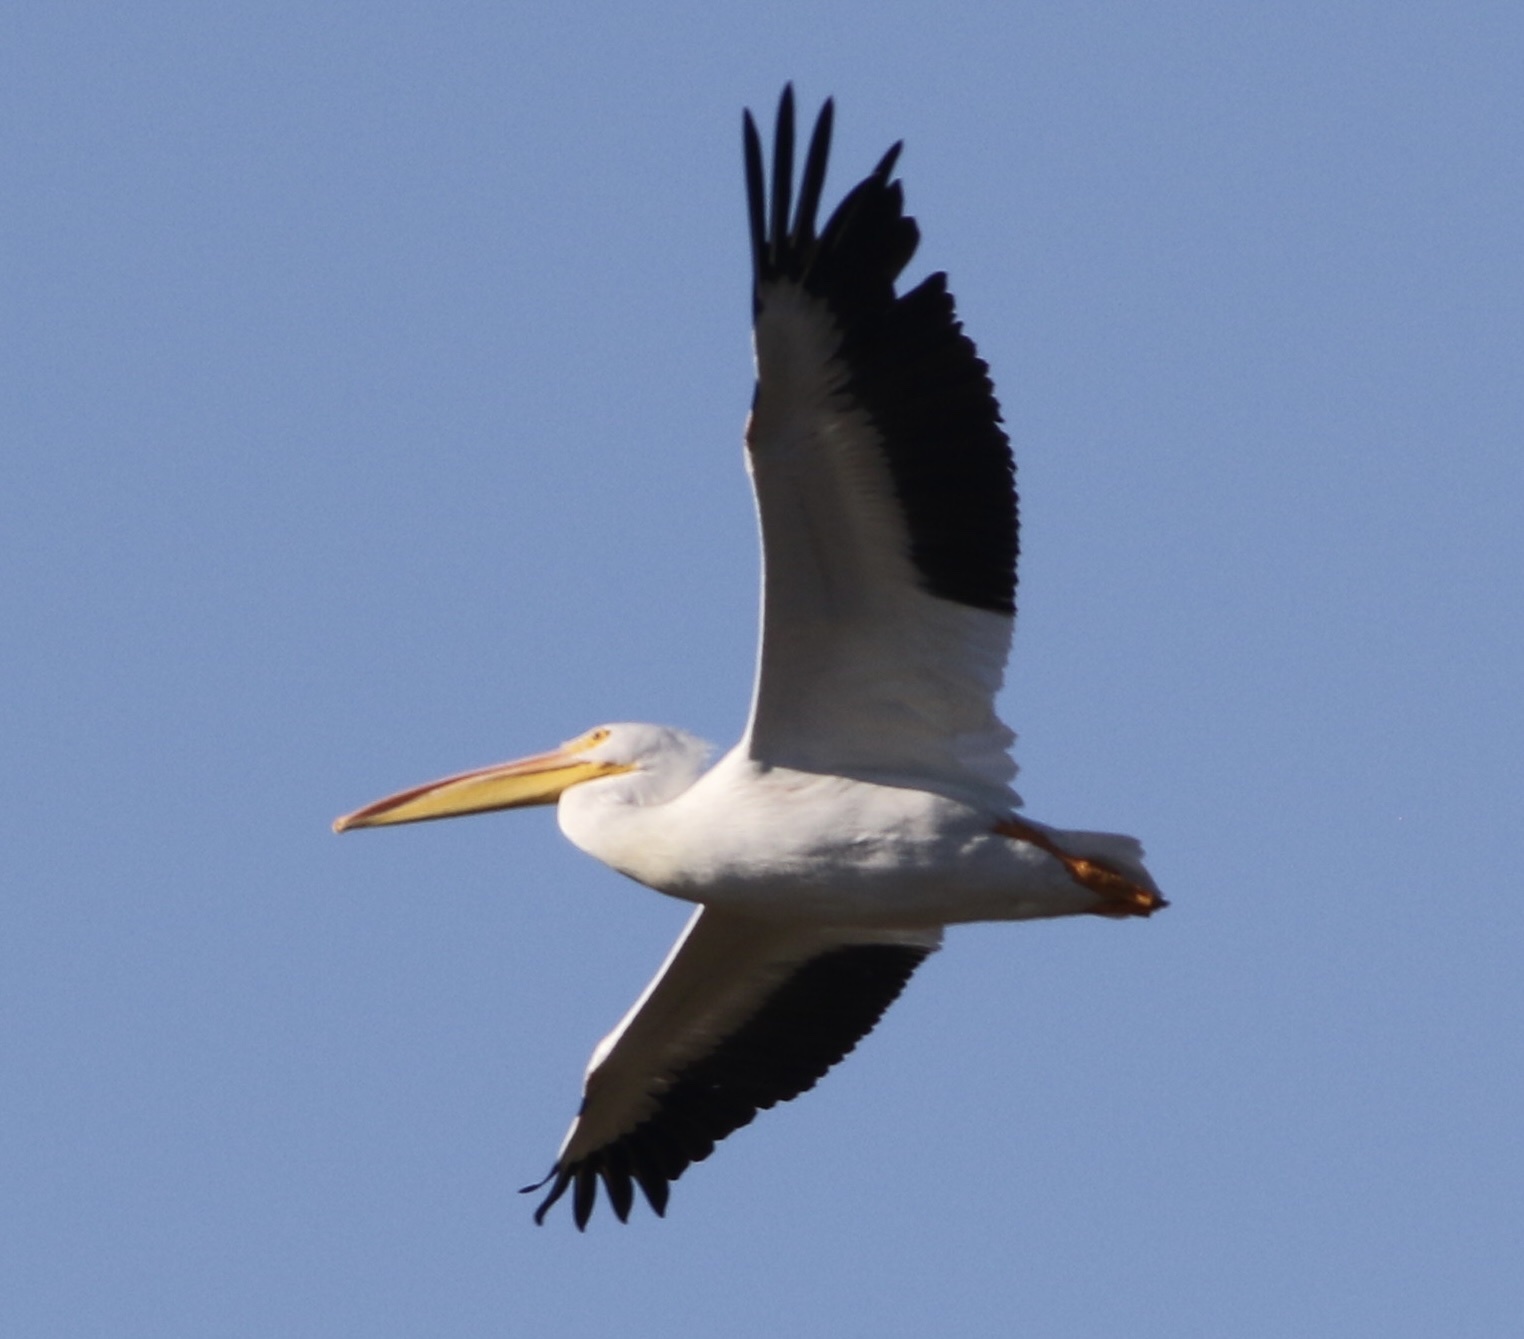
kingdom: Animalia
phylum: Chordata
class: Aves
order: Pelecaniformes
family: Pelecanidae
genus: Pelecanus
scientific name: Pelecanus erythrorhynchos
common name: American white pelican
